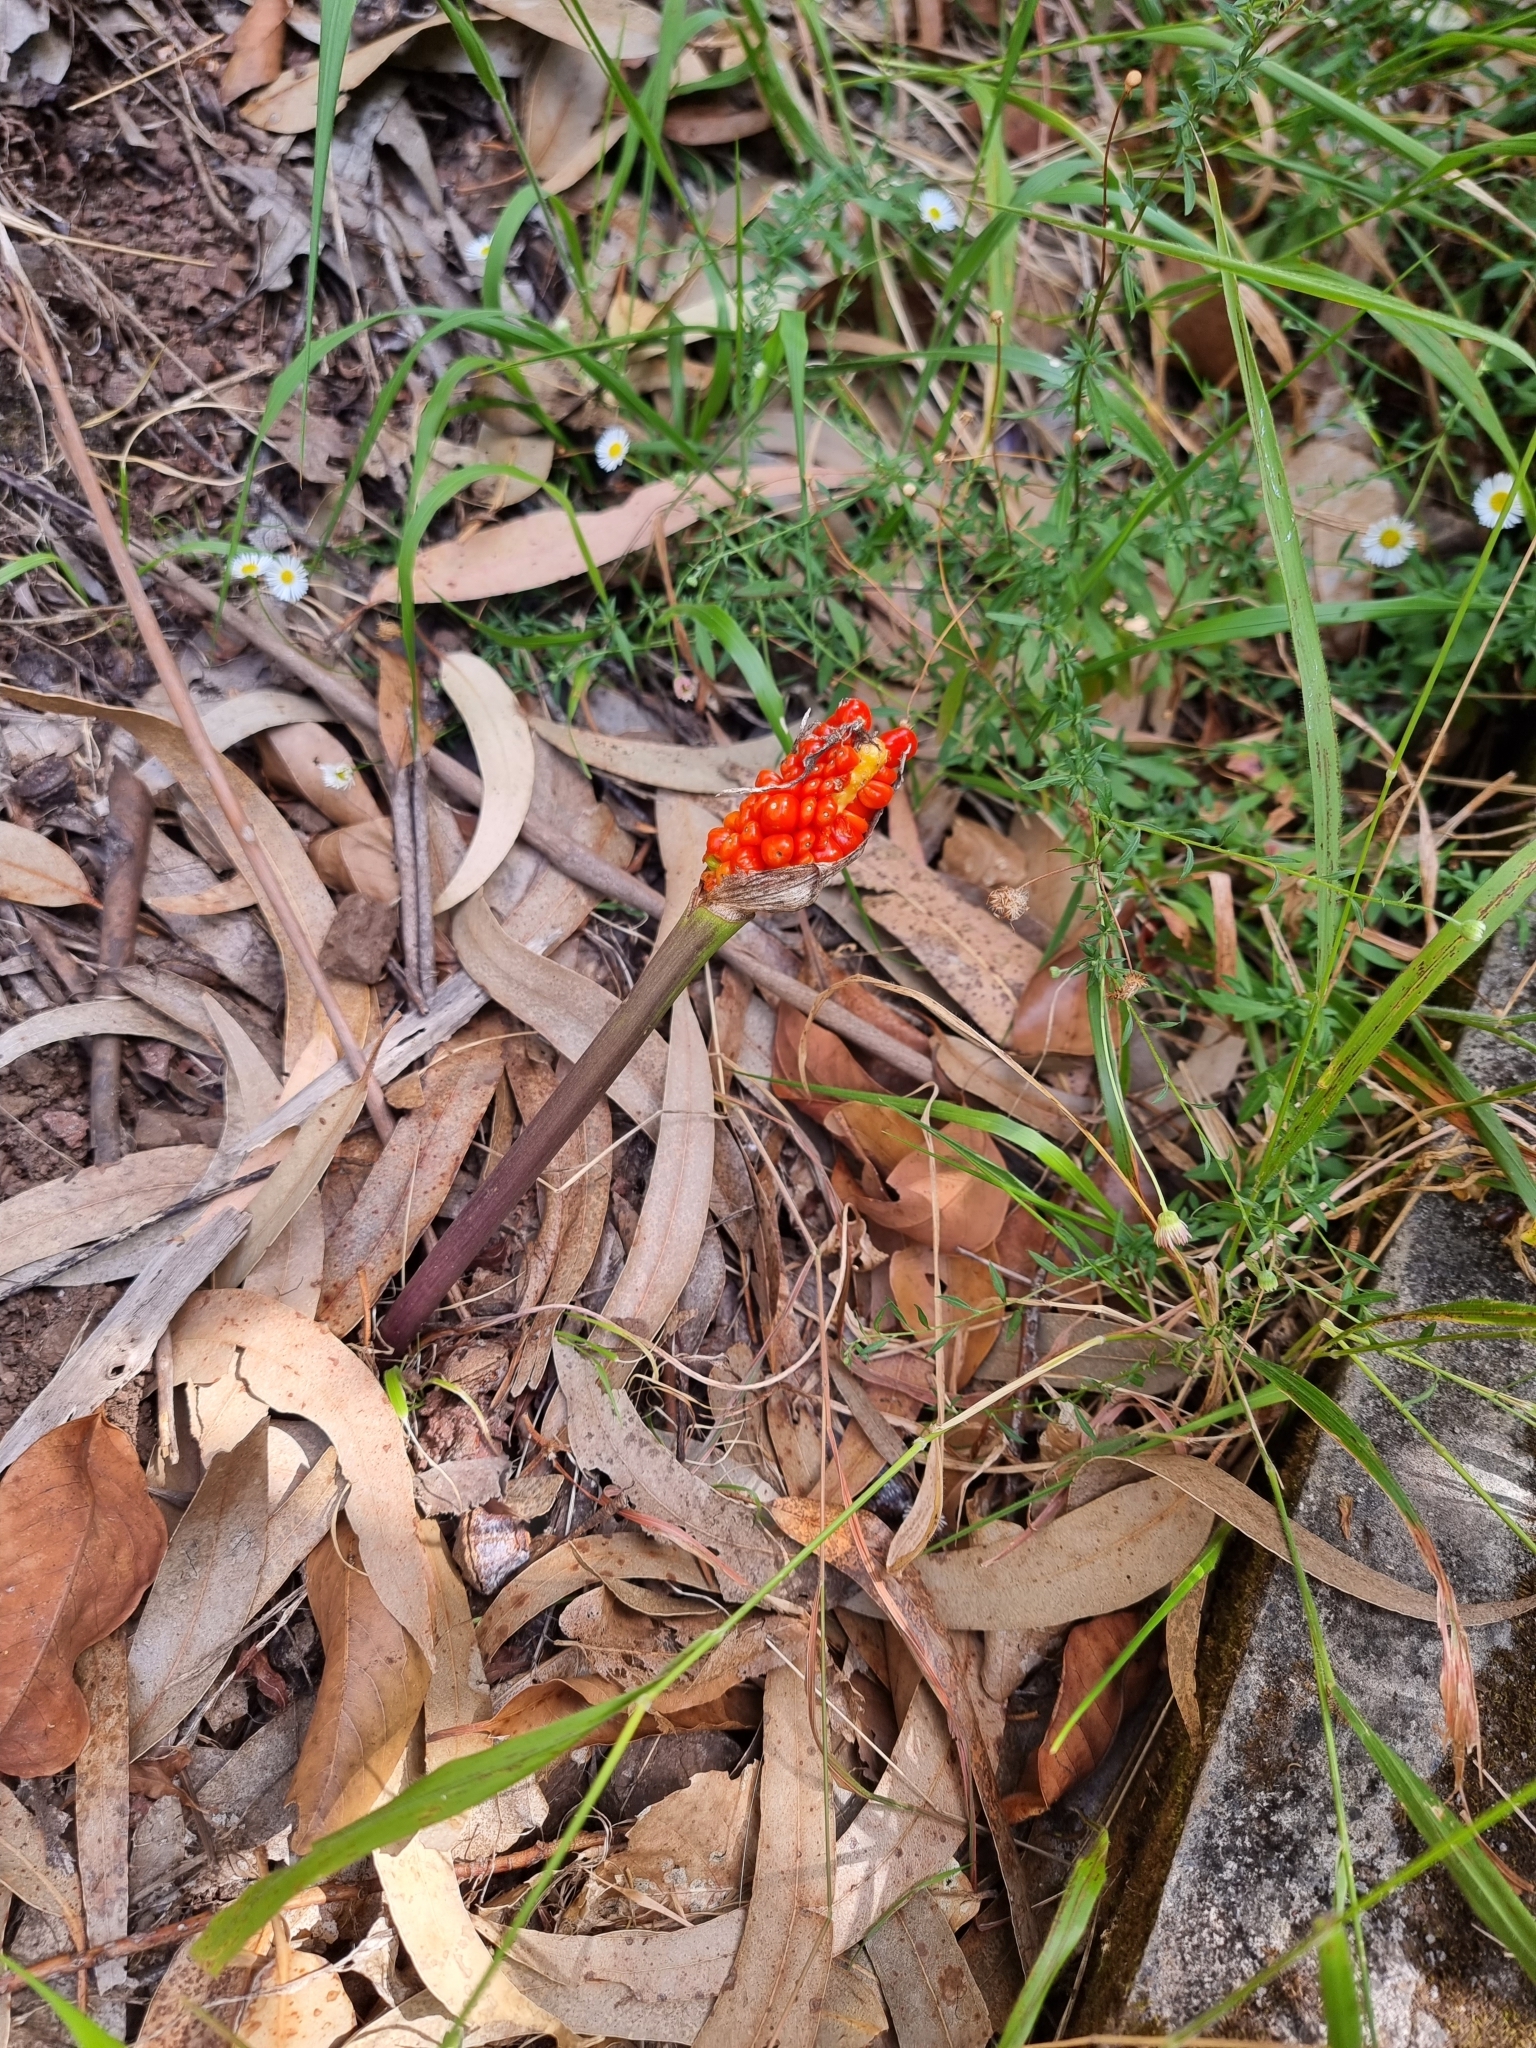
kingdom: Plantae
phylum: Tracheophyta
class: Liliopsida
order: Alismatales
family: Araceae
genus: Arum
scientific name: Arum italicum
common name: Italian lords-and-ladies
